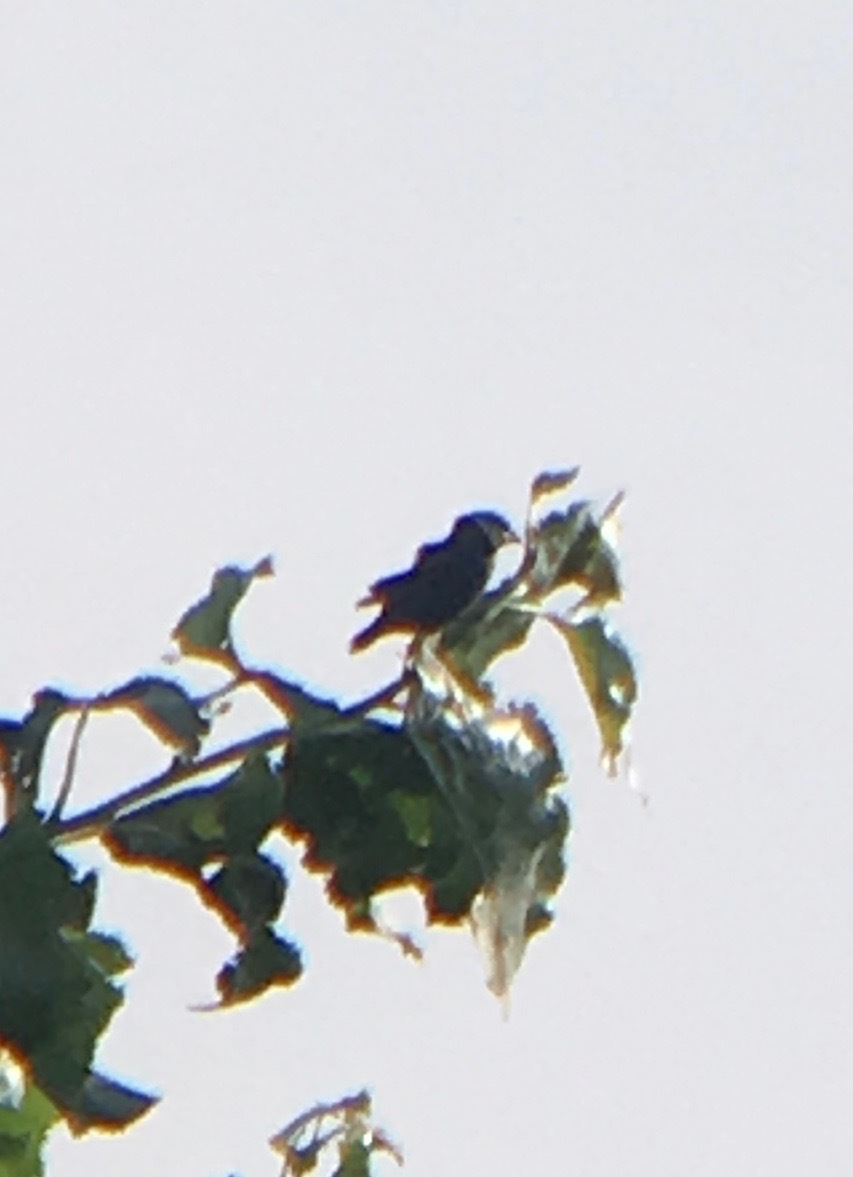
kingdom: Animalia
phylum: Chordata
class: Aves
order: Passeriformes
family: Cardinalidae
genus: Passerina
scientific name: Passerina caerulea
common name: Blue grosbeak
